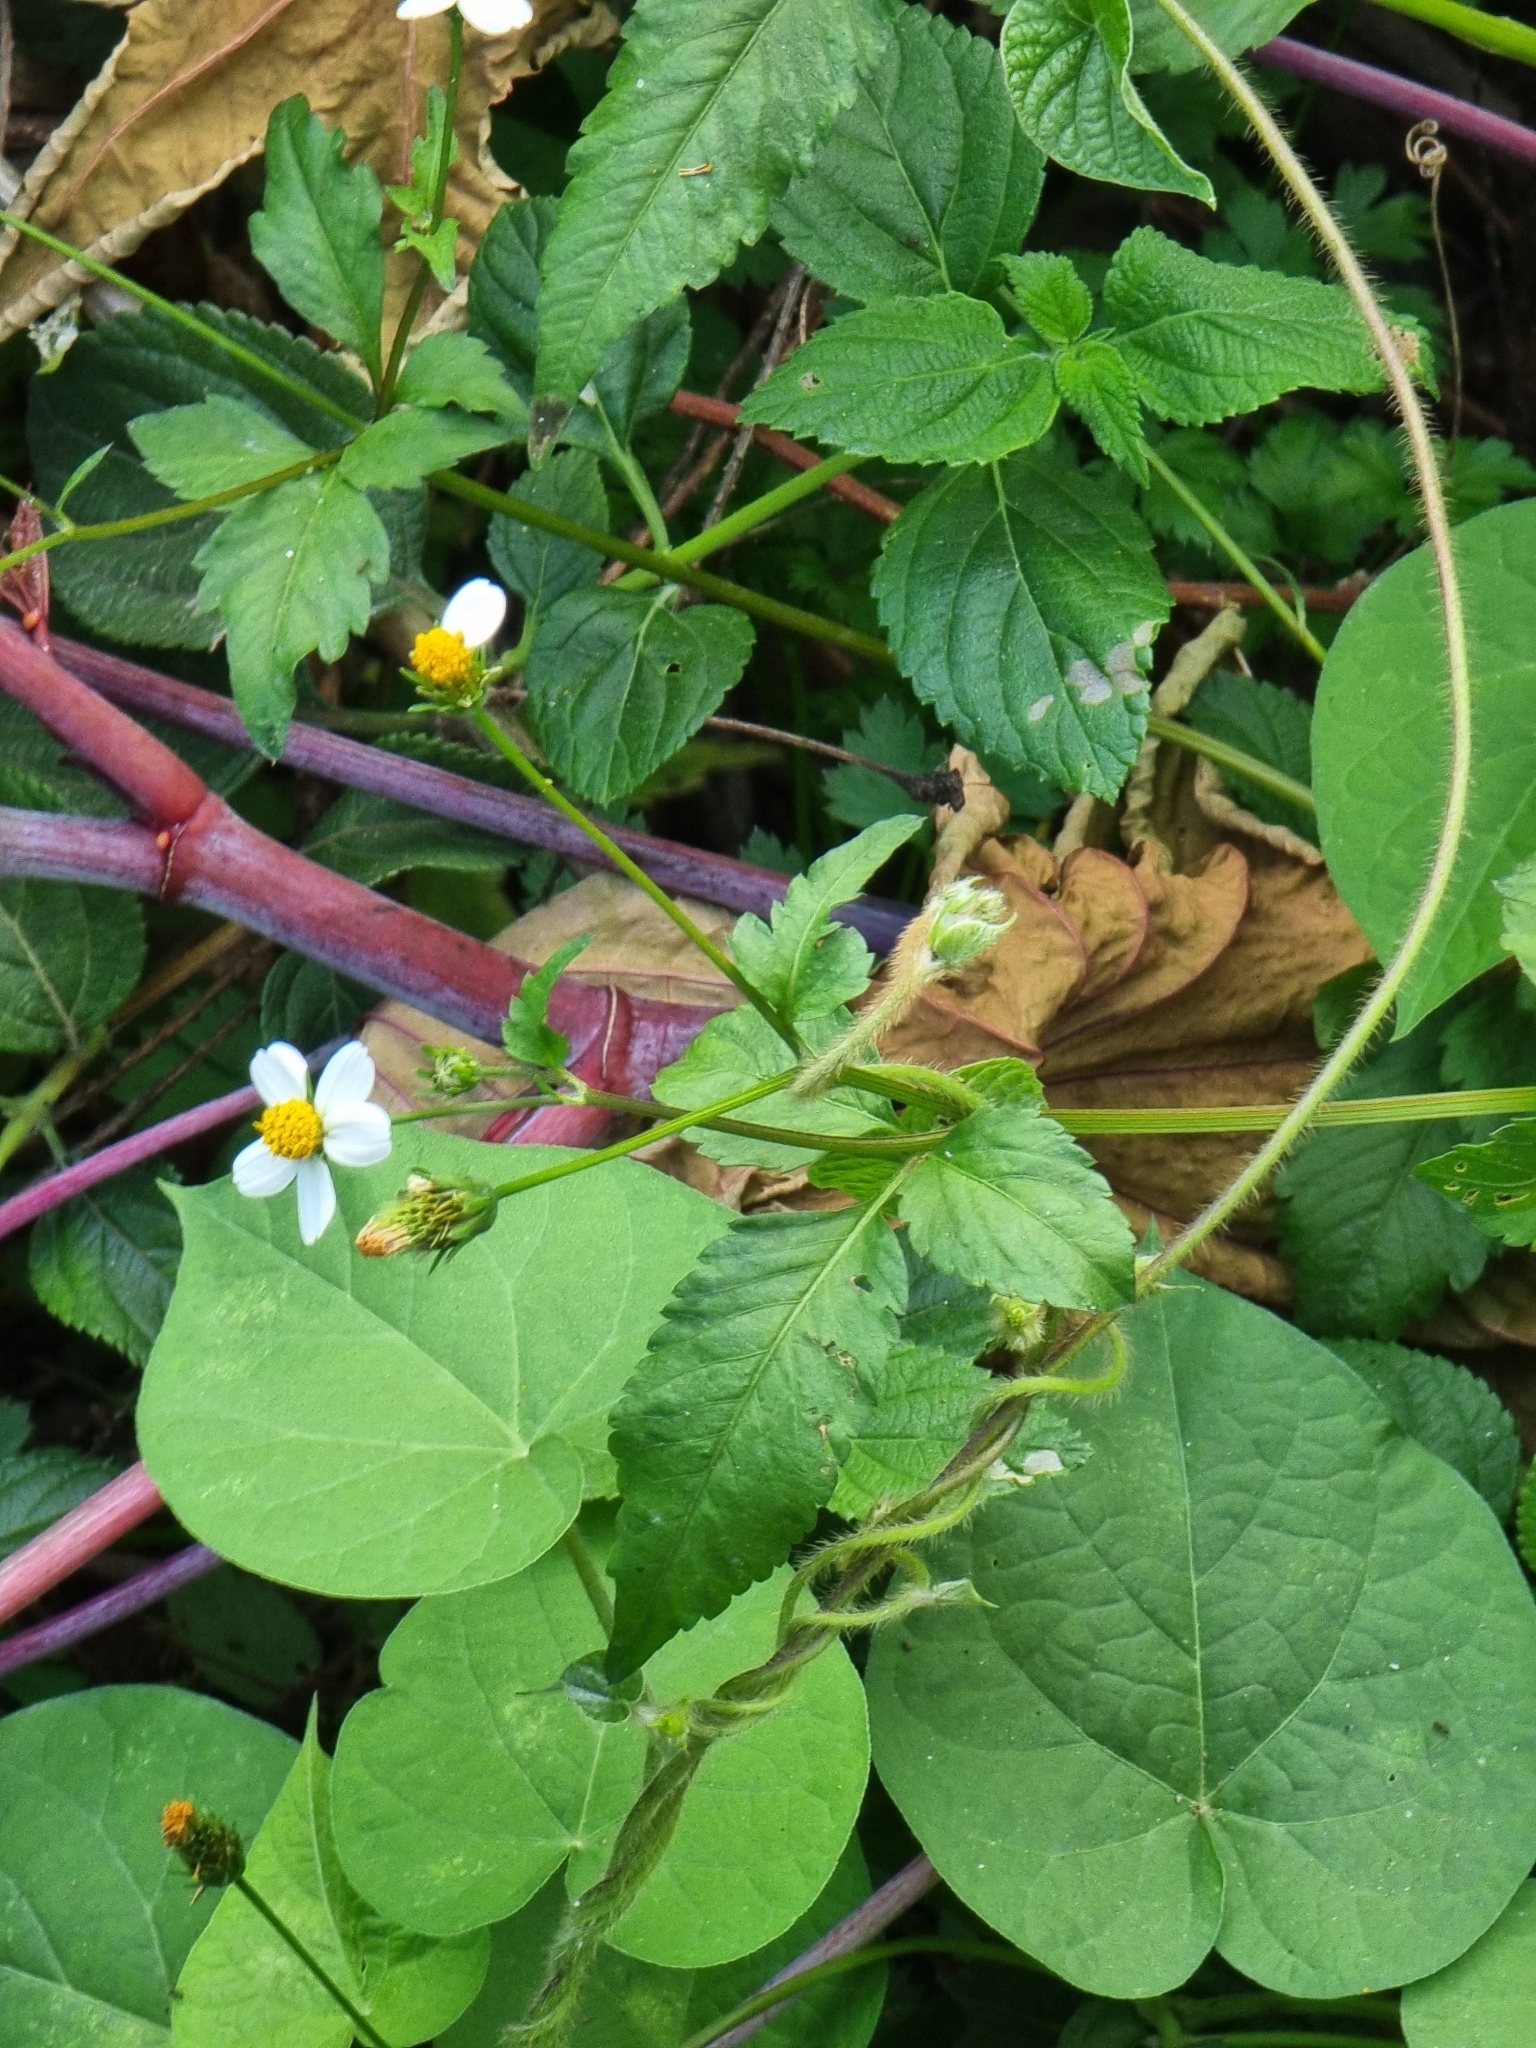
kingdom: Plantae
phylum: Tracheophyta
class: Magnoliopsida
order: Asterales
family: Asteraceae
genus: Bidens
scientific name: Bidens pilosa
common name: Black-jack
